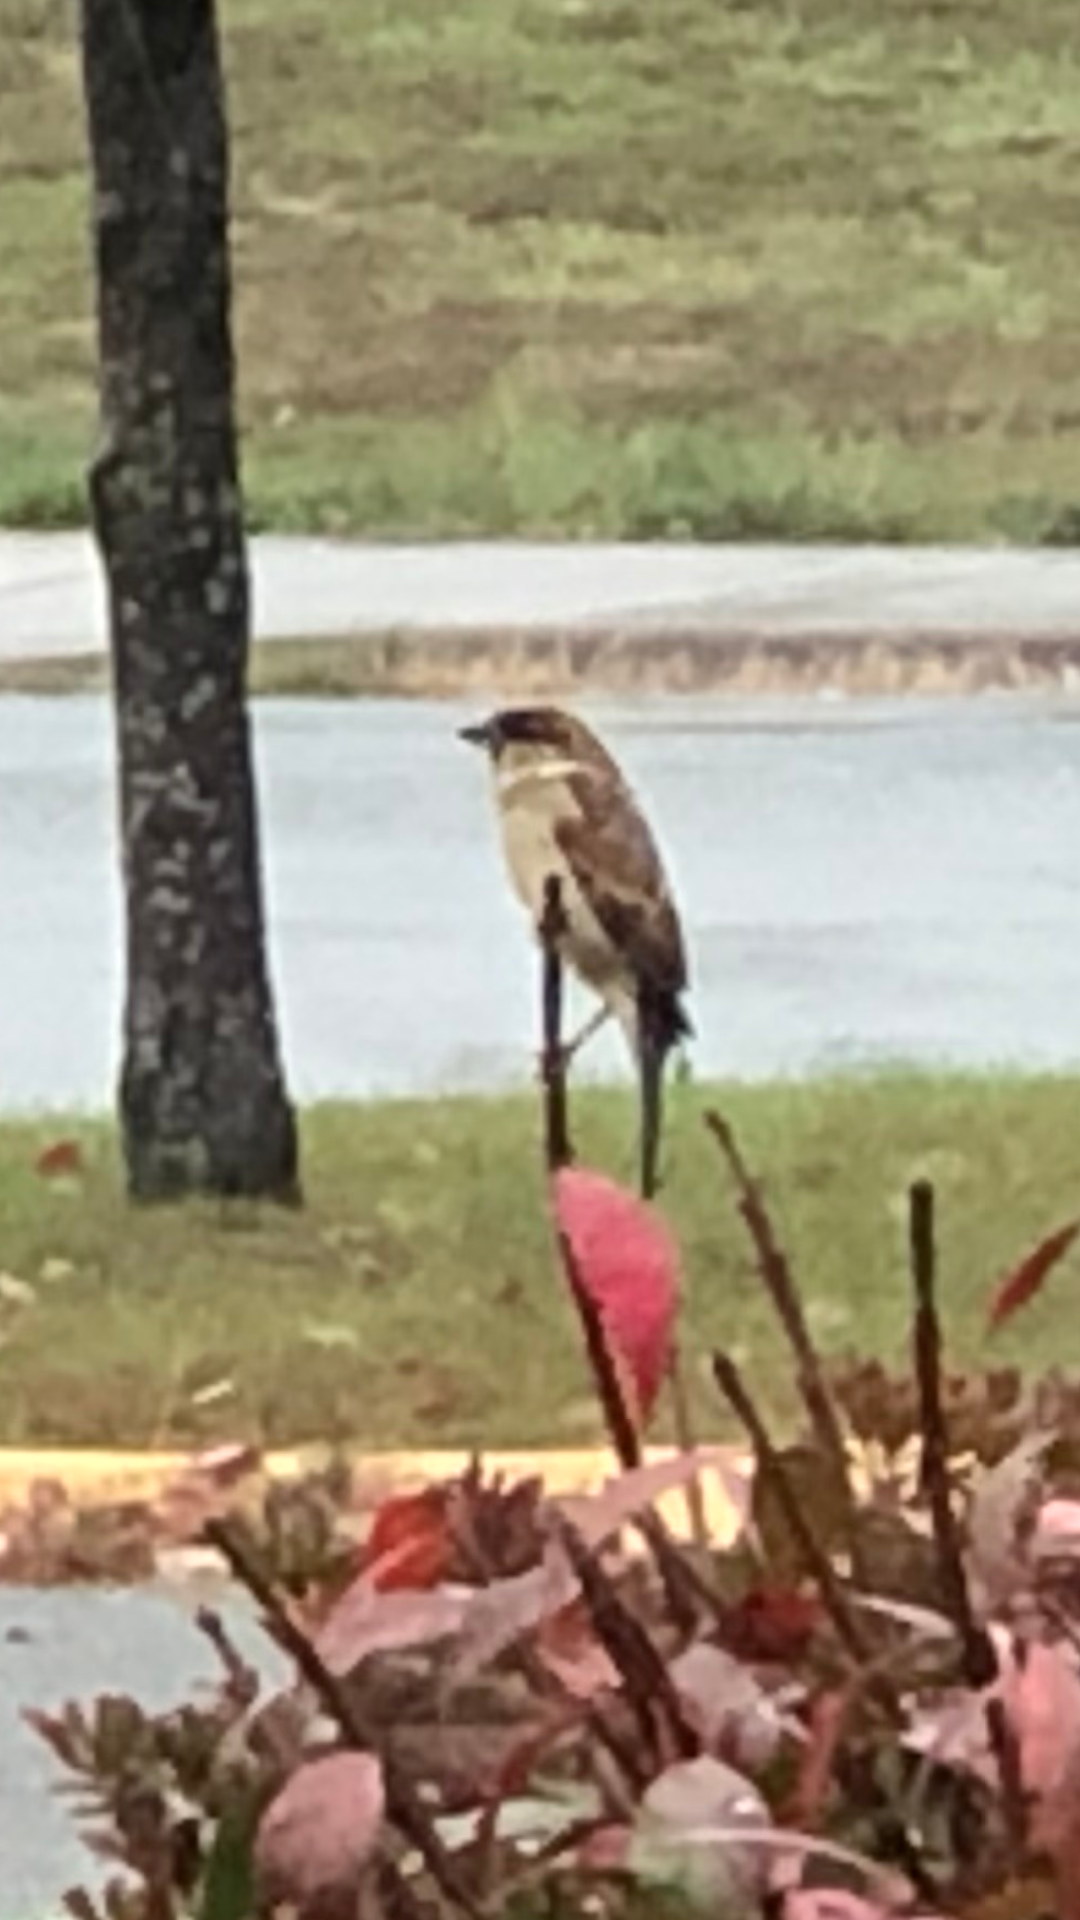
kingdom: Animalia
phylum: Chordata
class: Aves
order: Passeriformes
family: Passeridae
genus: Passer
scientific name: Passer domesticus
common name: House sparrow
